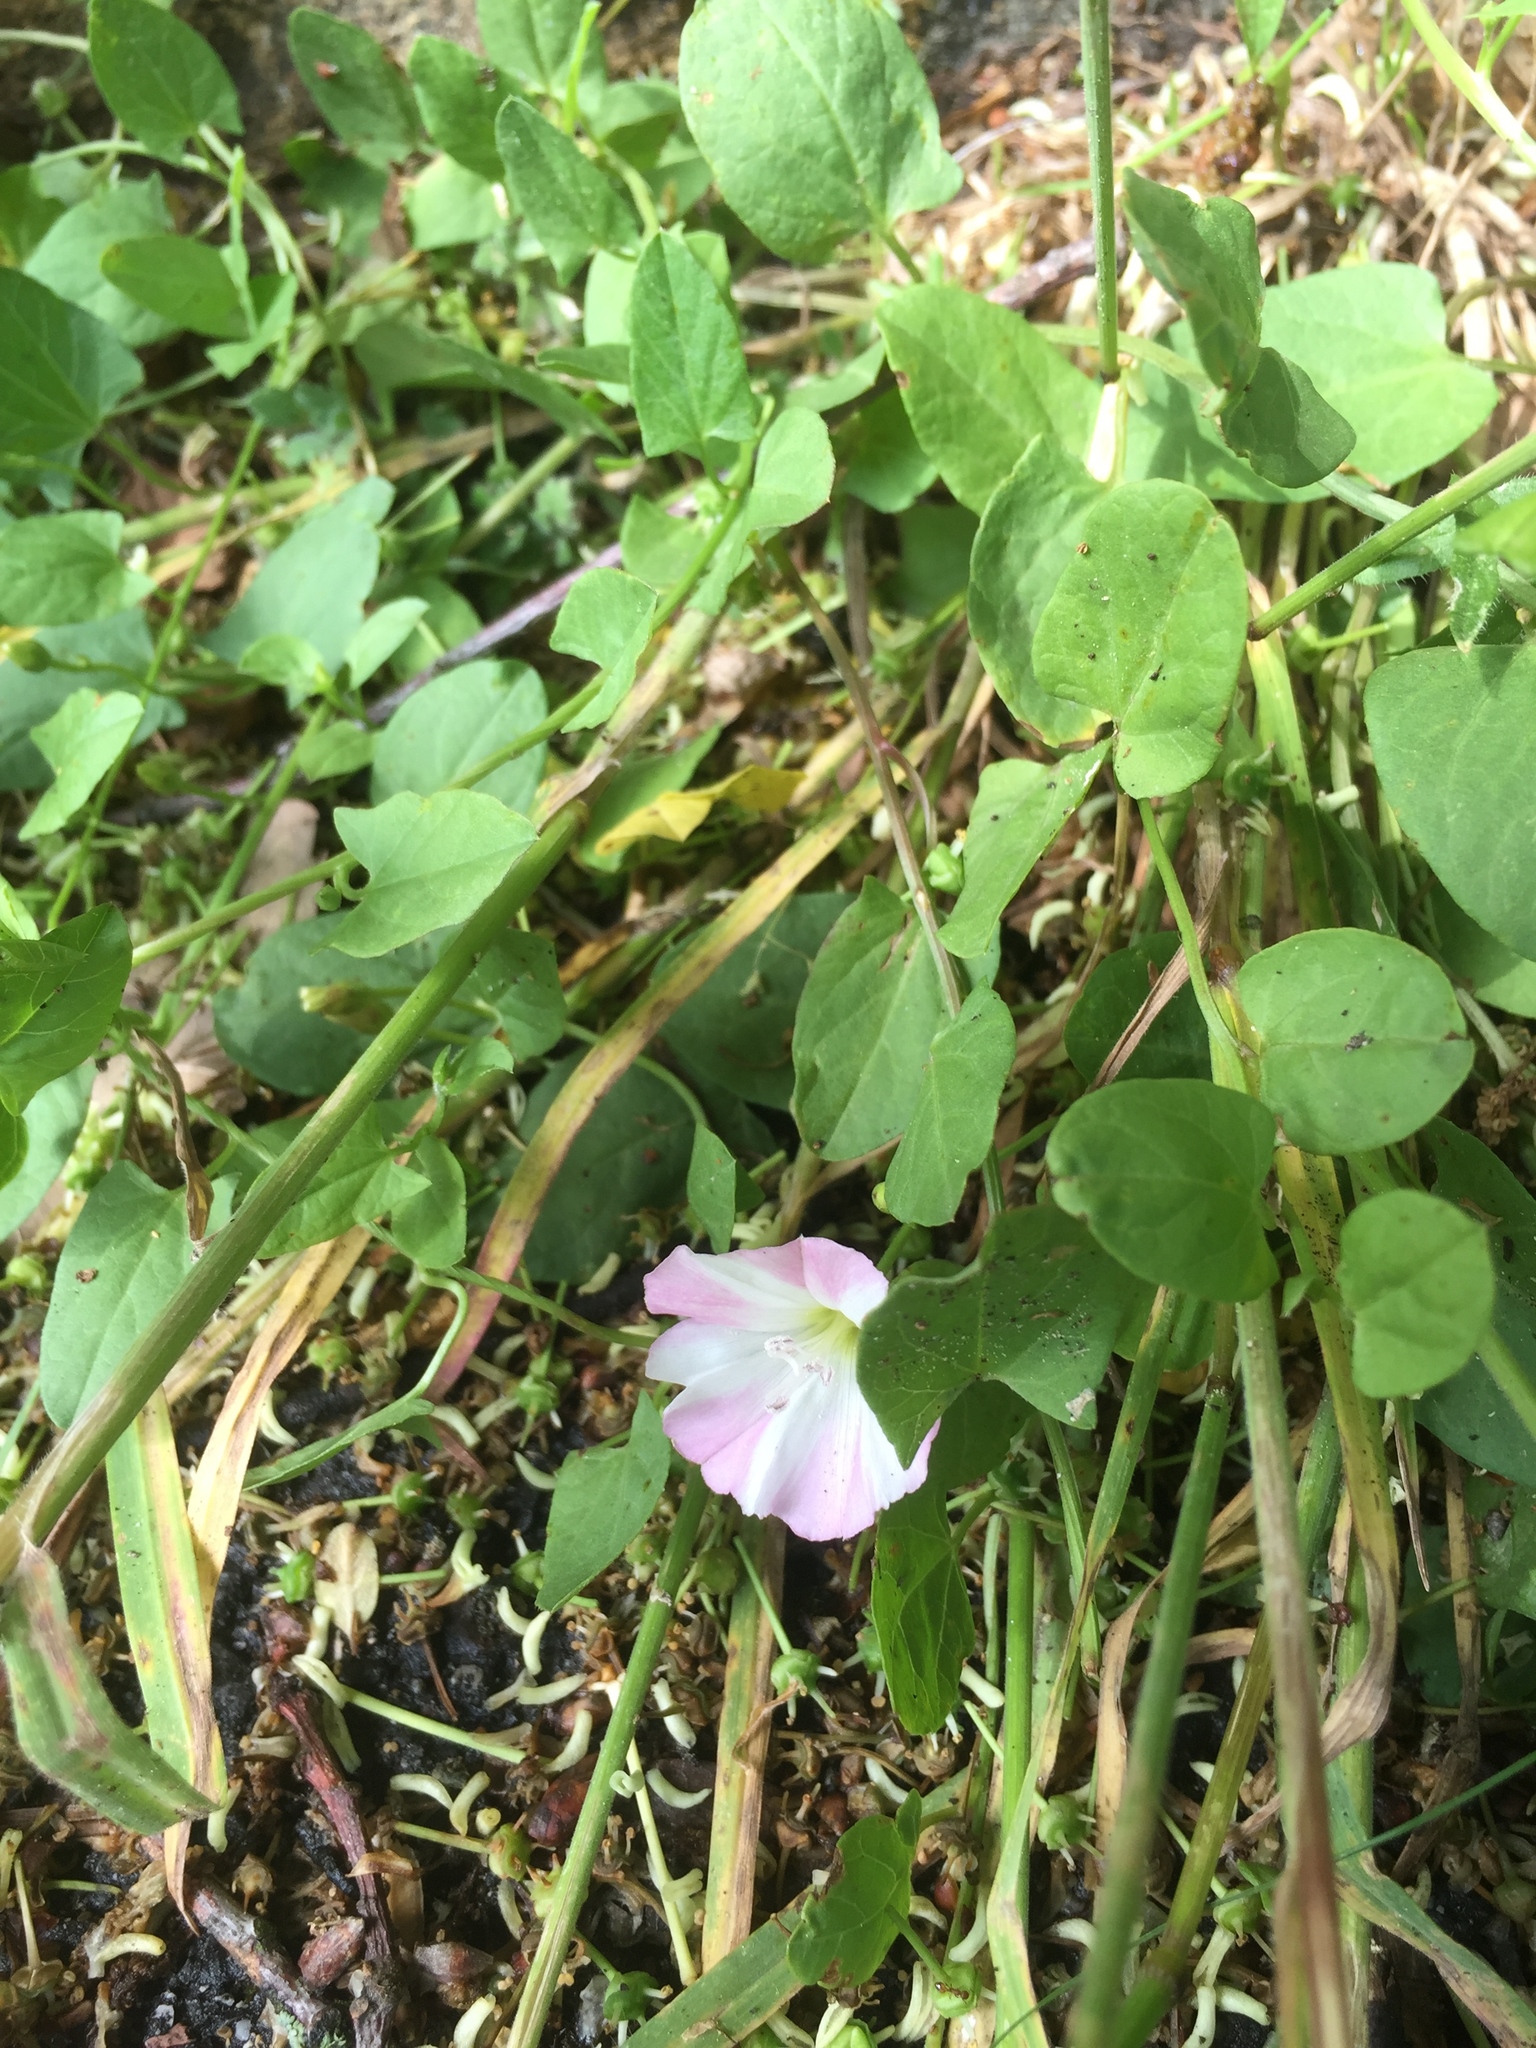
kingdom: Plantae
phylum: Tracheophyta
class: Magnoliopsida
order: Solanales
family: Convolvulaceae
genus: Convolvulus
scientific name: Convolvulus arvensis
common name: Field bindweed
